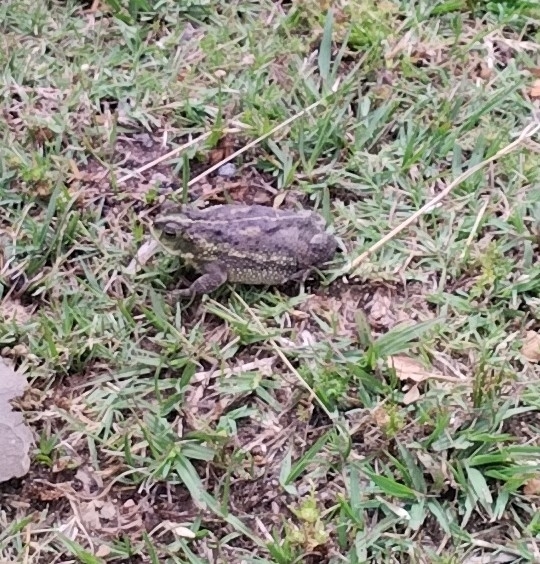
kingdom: Animalia
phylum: Chordata
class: Amphibia
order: Anura
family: Bufonidae
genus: Rhinella
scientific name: Rhinella dorbignyi
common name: D´orbigny’s toad
